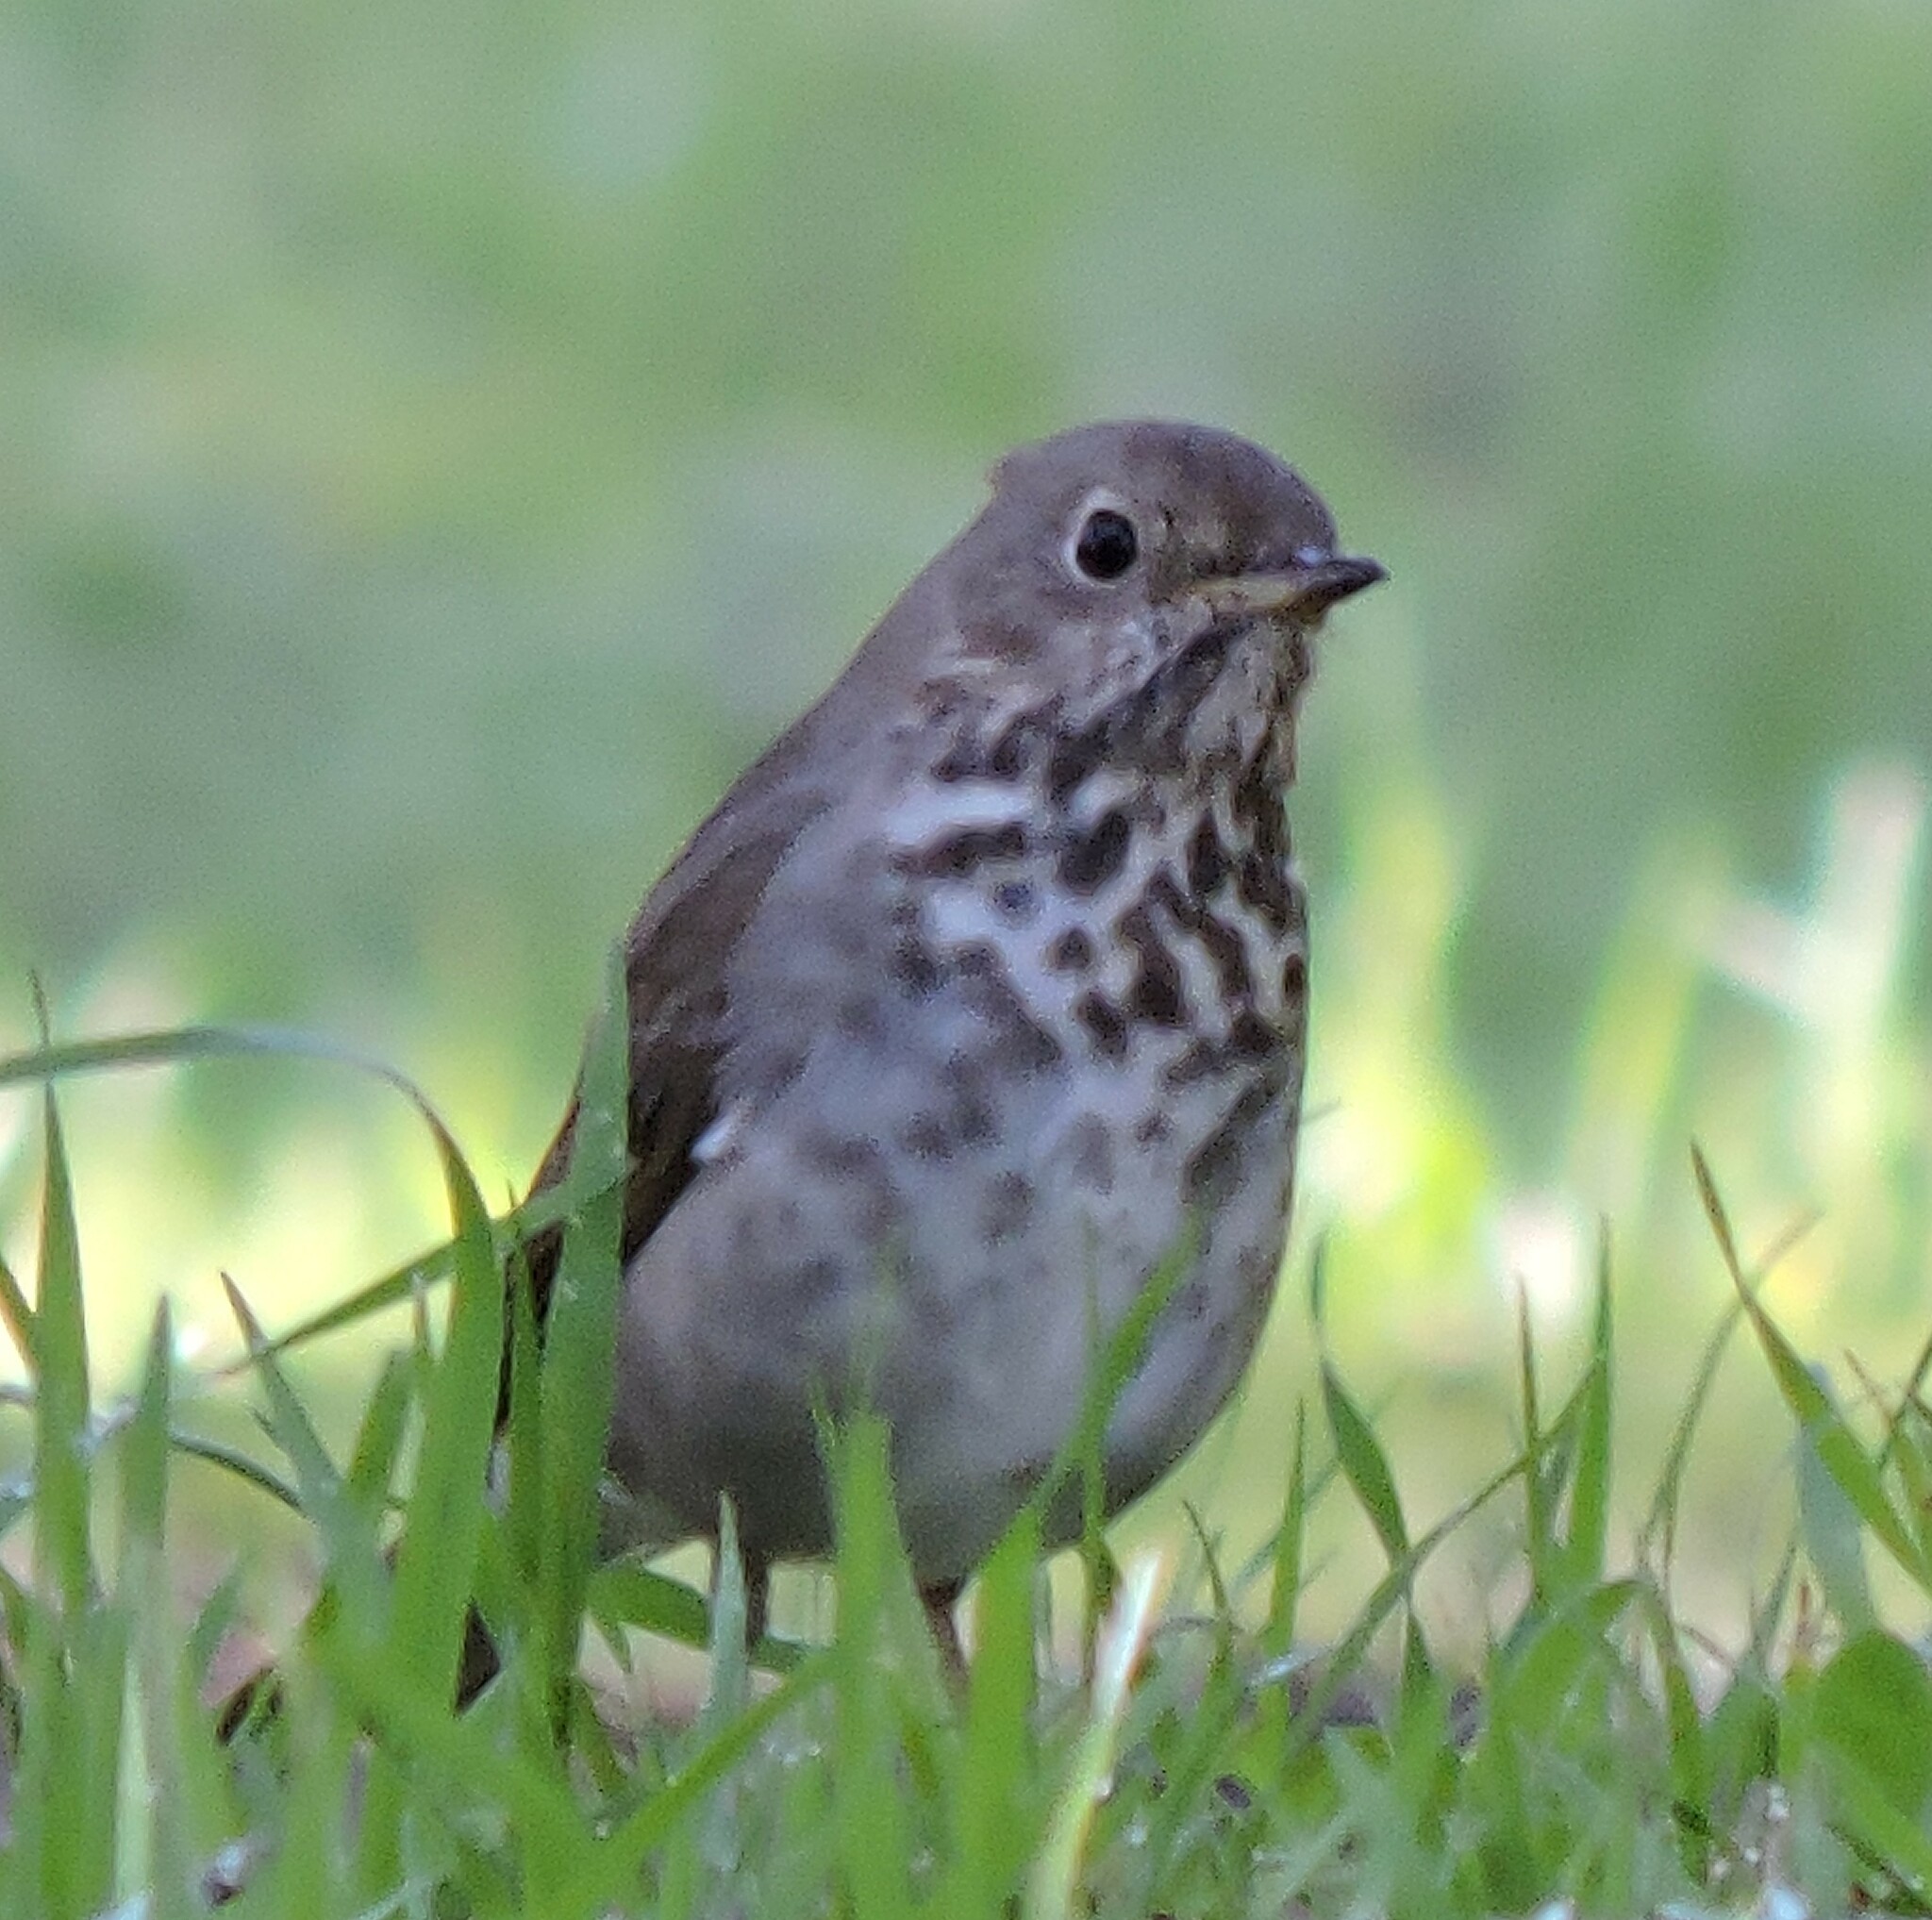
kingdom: Animalia
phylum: Chordata
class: Aves
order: Passeriformes
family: Turdidae
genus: Catharus
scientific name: Catharus guttatus
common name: Hermit thrush
